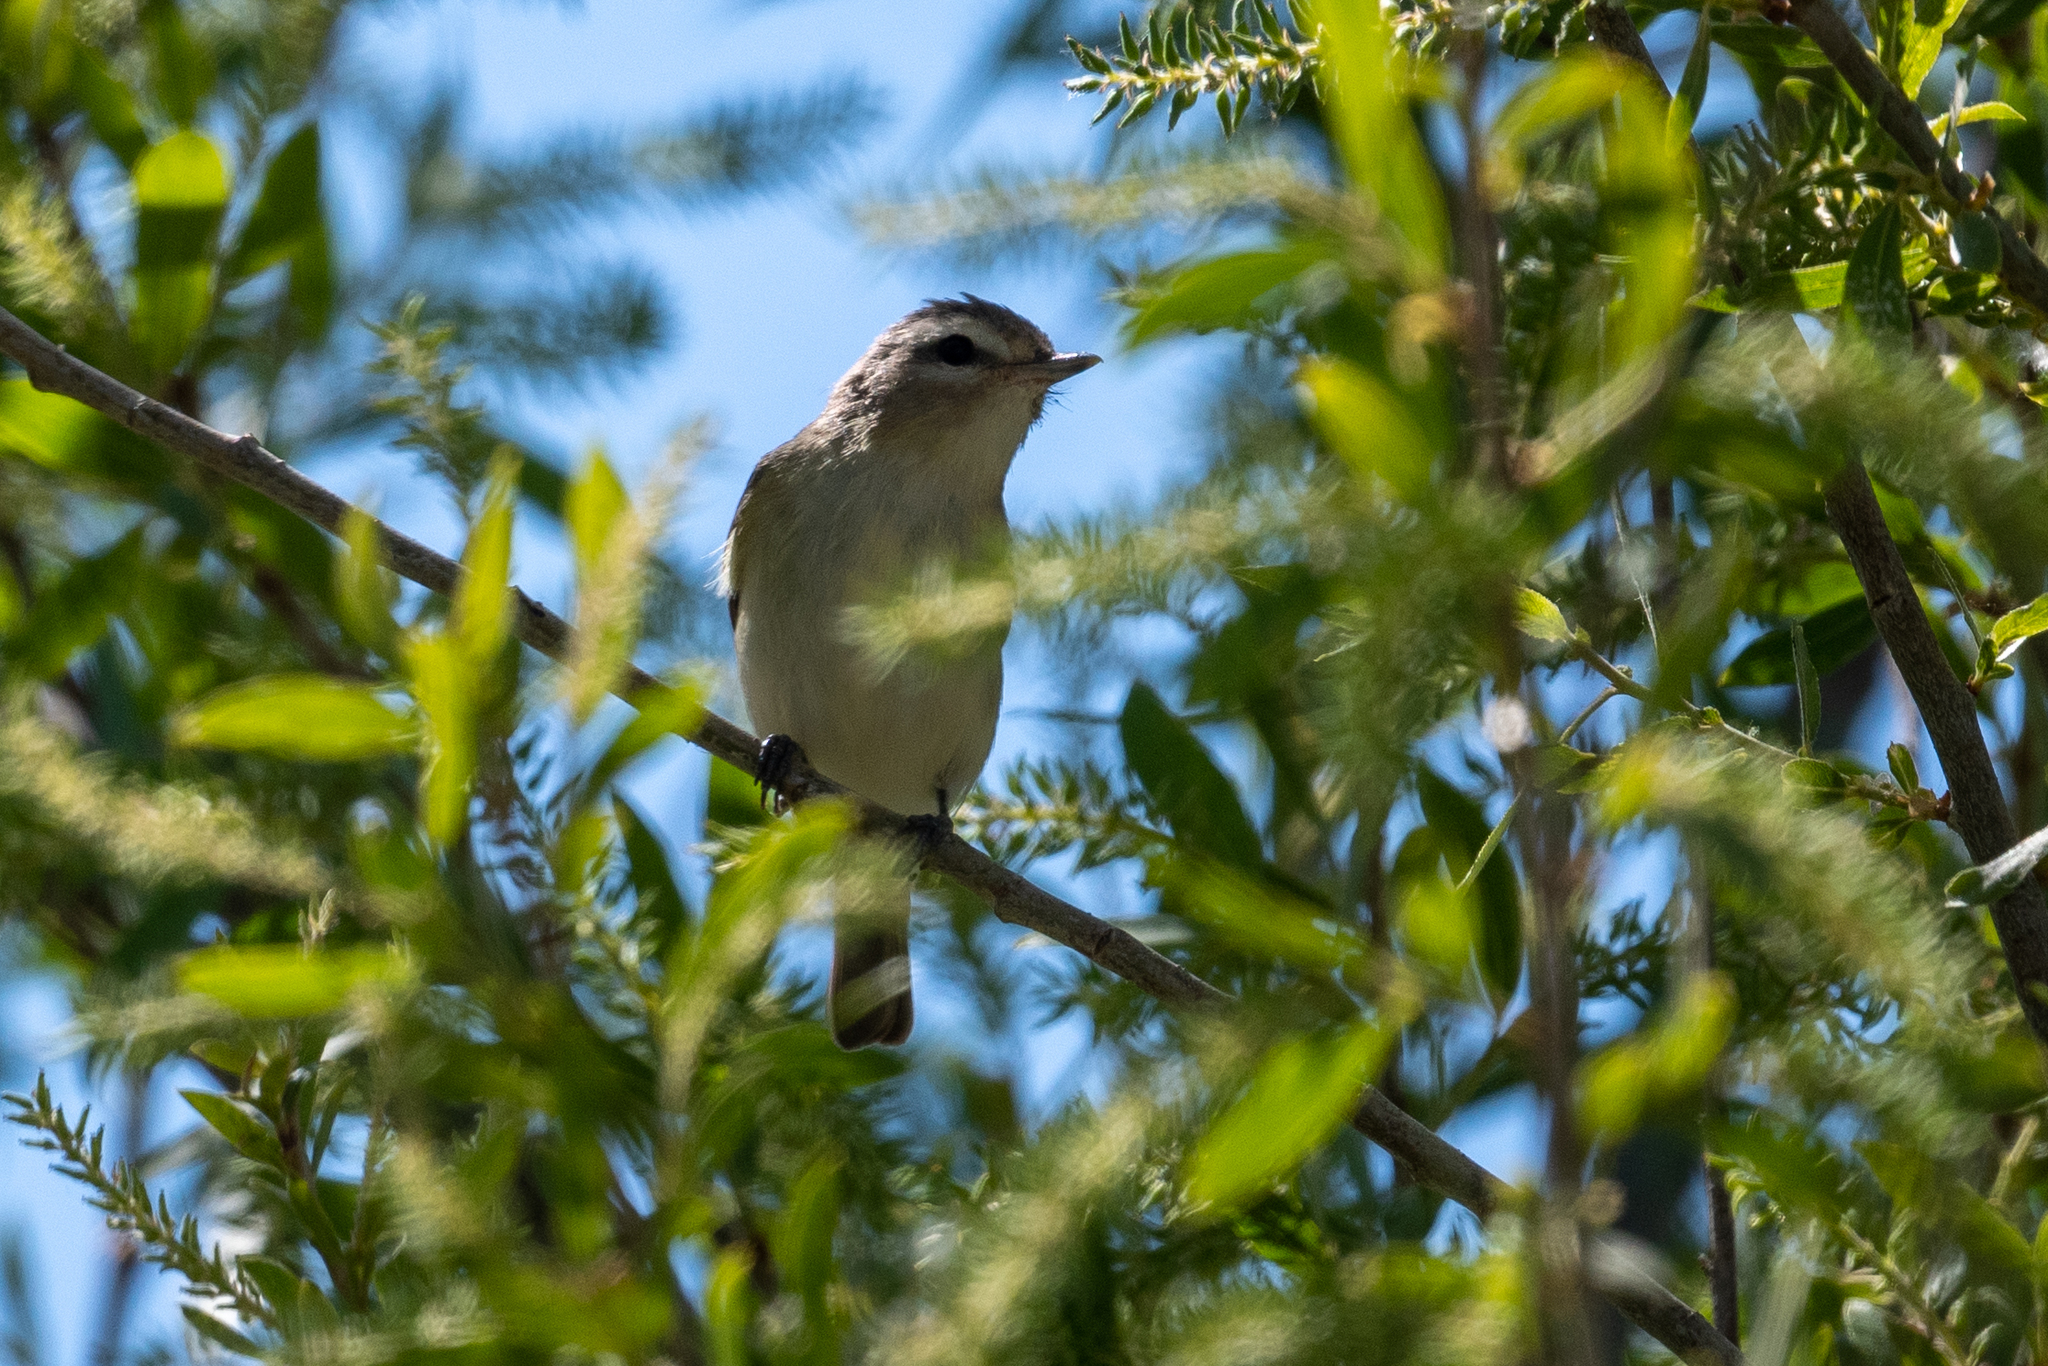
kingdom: Animalia
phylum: Chordata
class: Aves
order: Passeriformes
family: Vireonidae
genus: Vireo
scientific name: Vireo gilvus
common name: Warbling vireo
